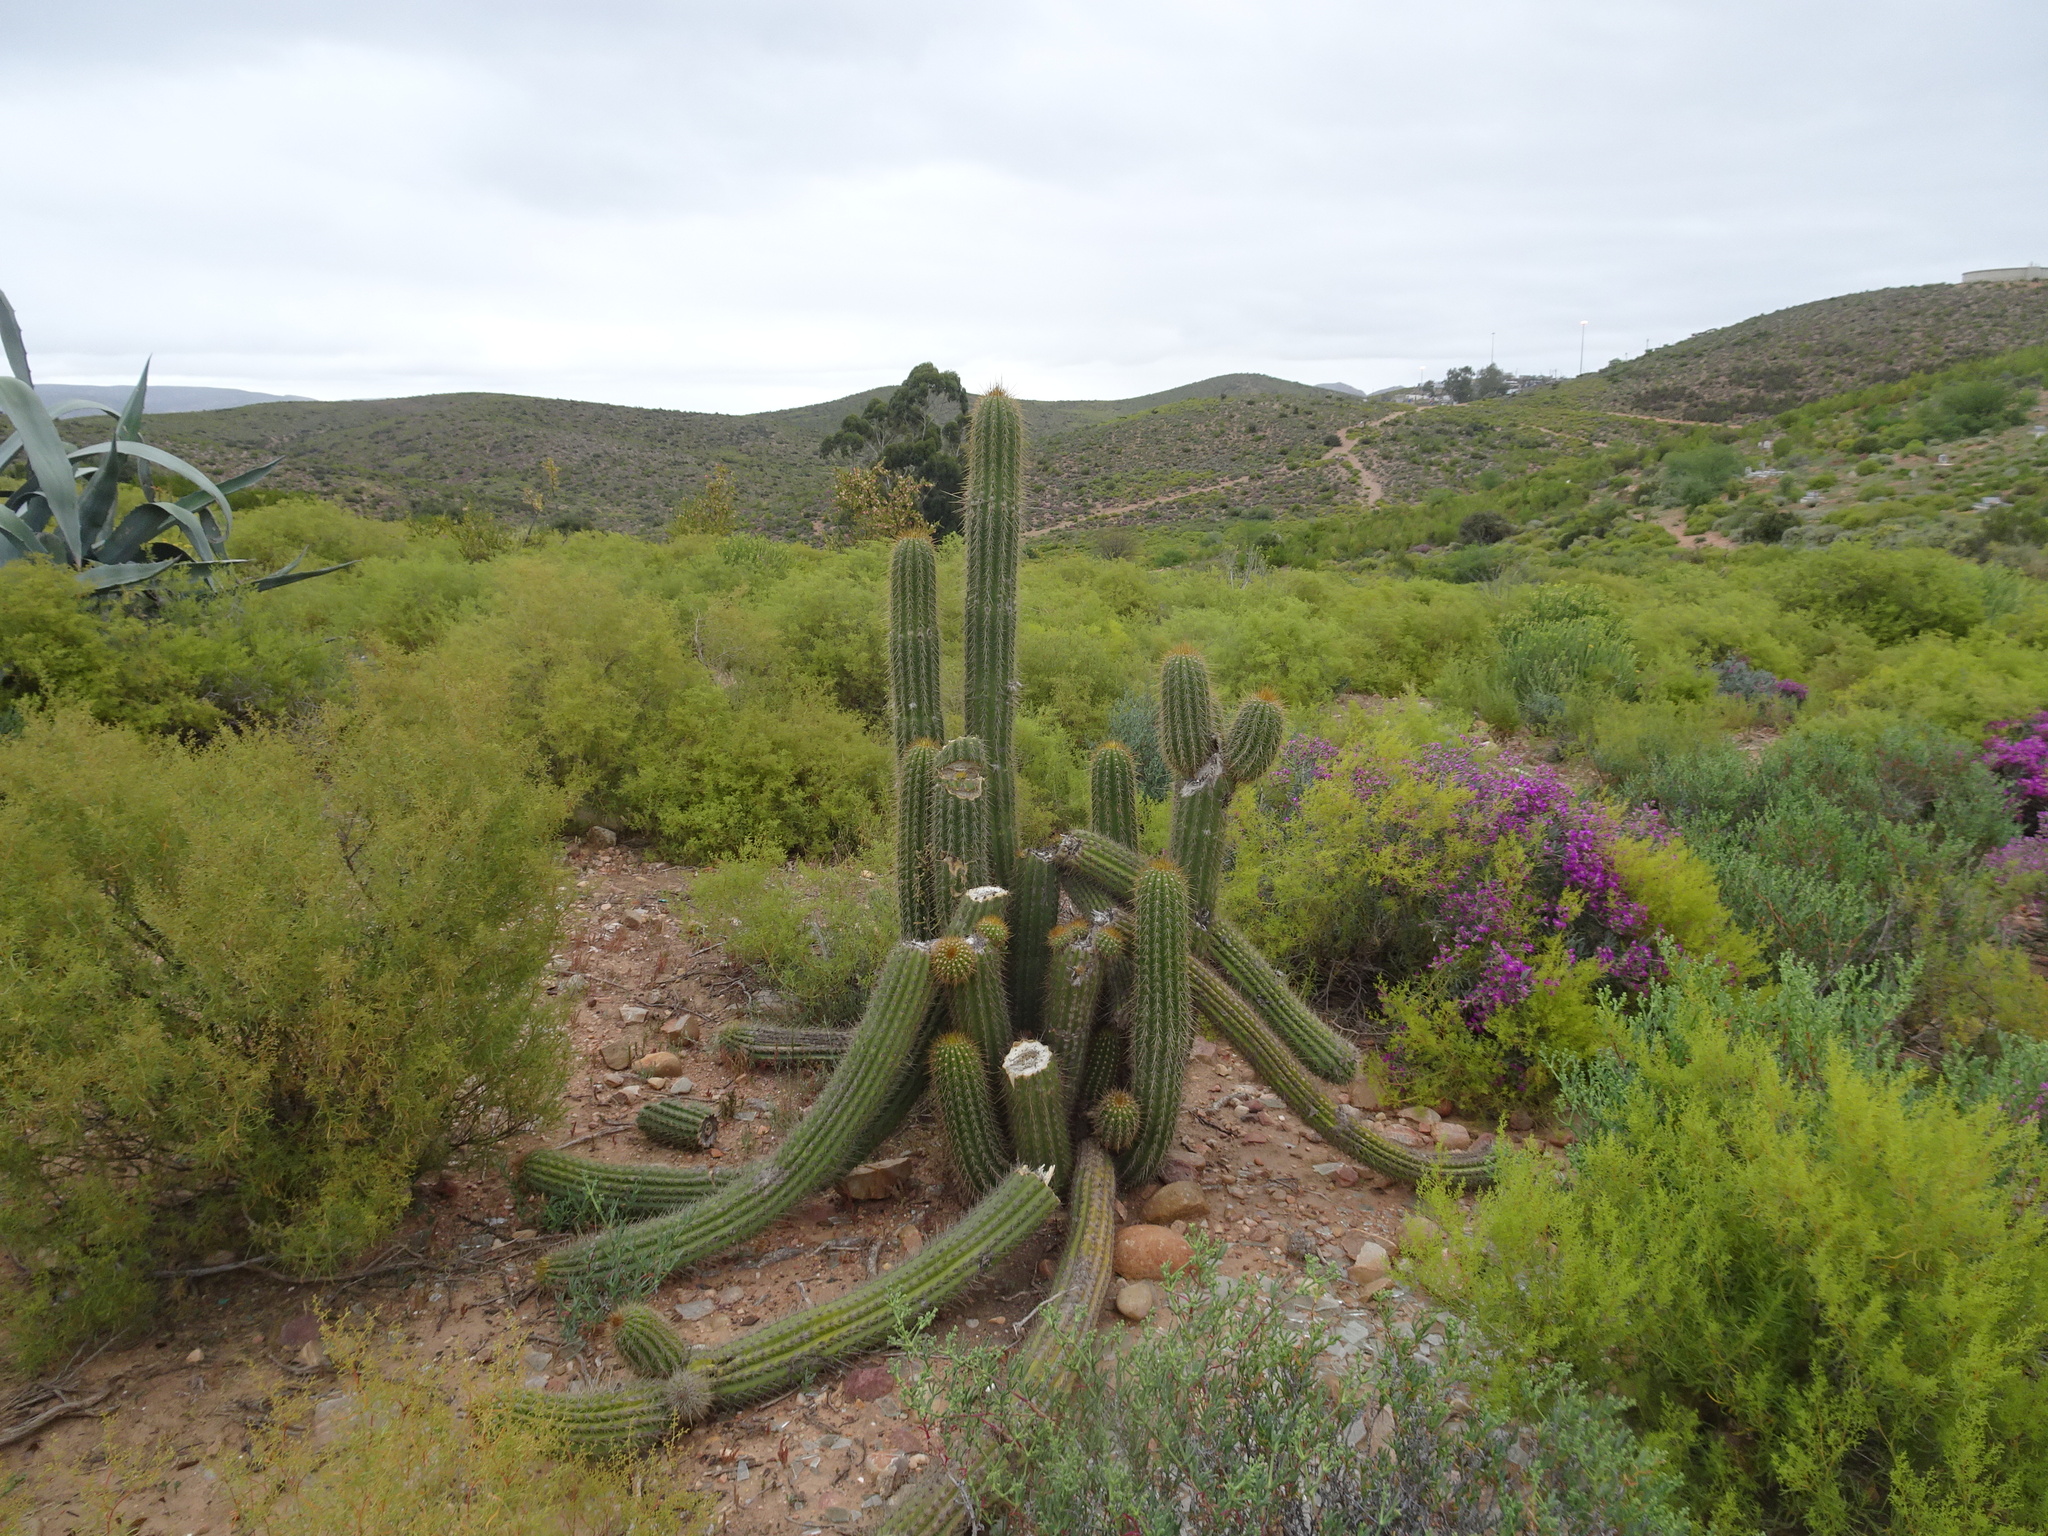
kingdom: Plantae
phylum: Tracheophyta
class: Magnoliopsida
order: Caryophyllales
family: Cactaceae
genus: Soehrensia
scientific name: Soehrensia spachiana
